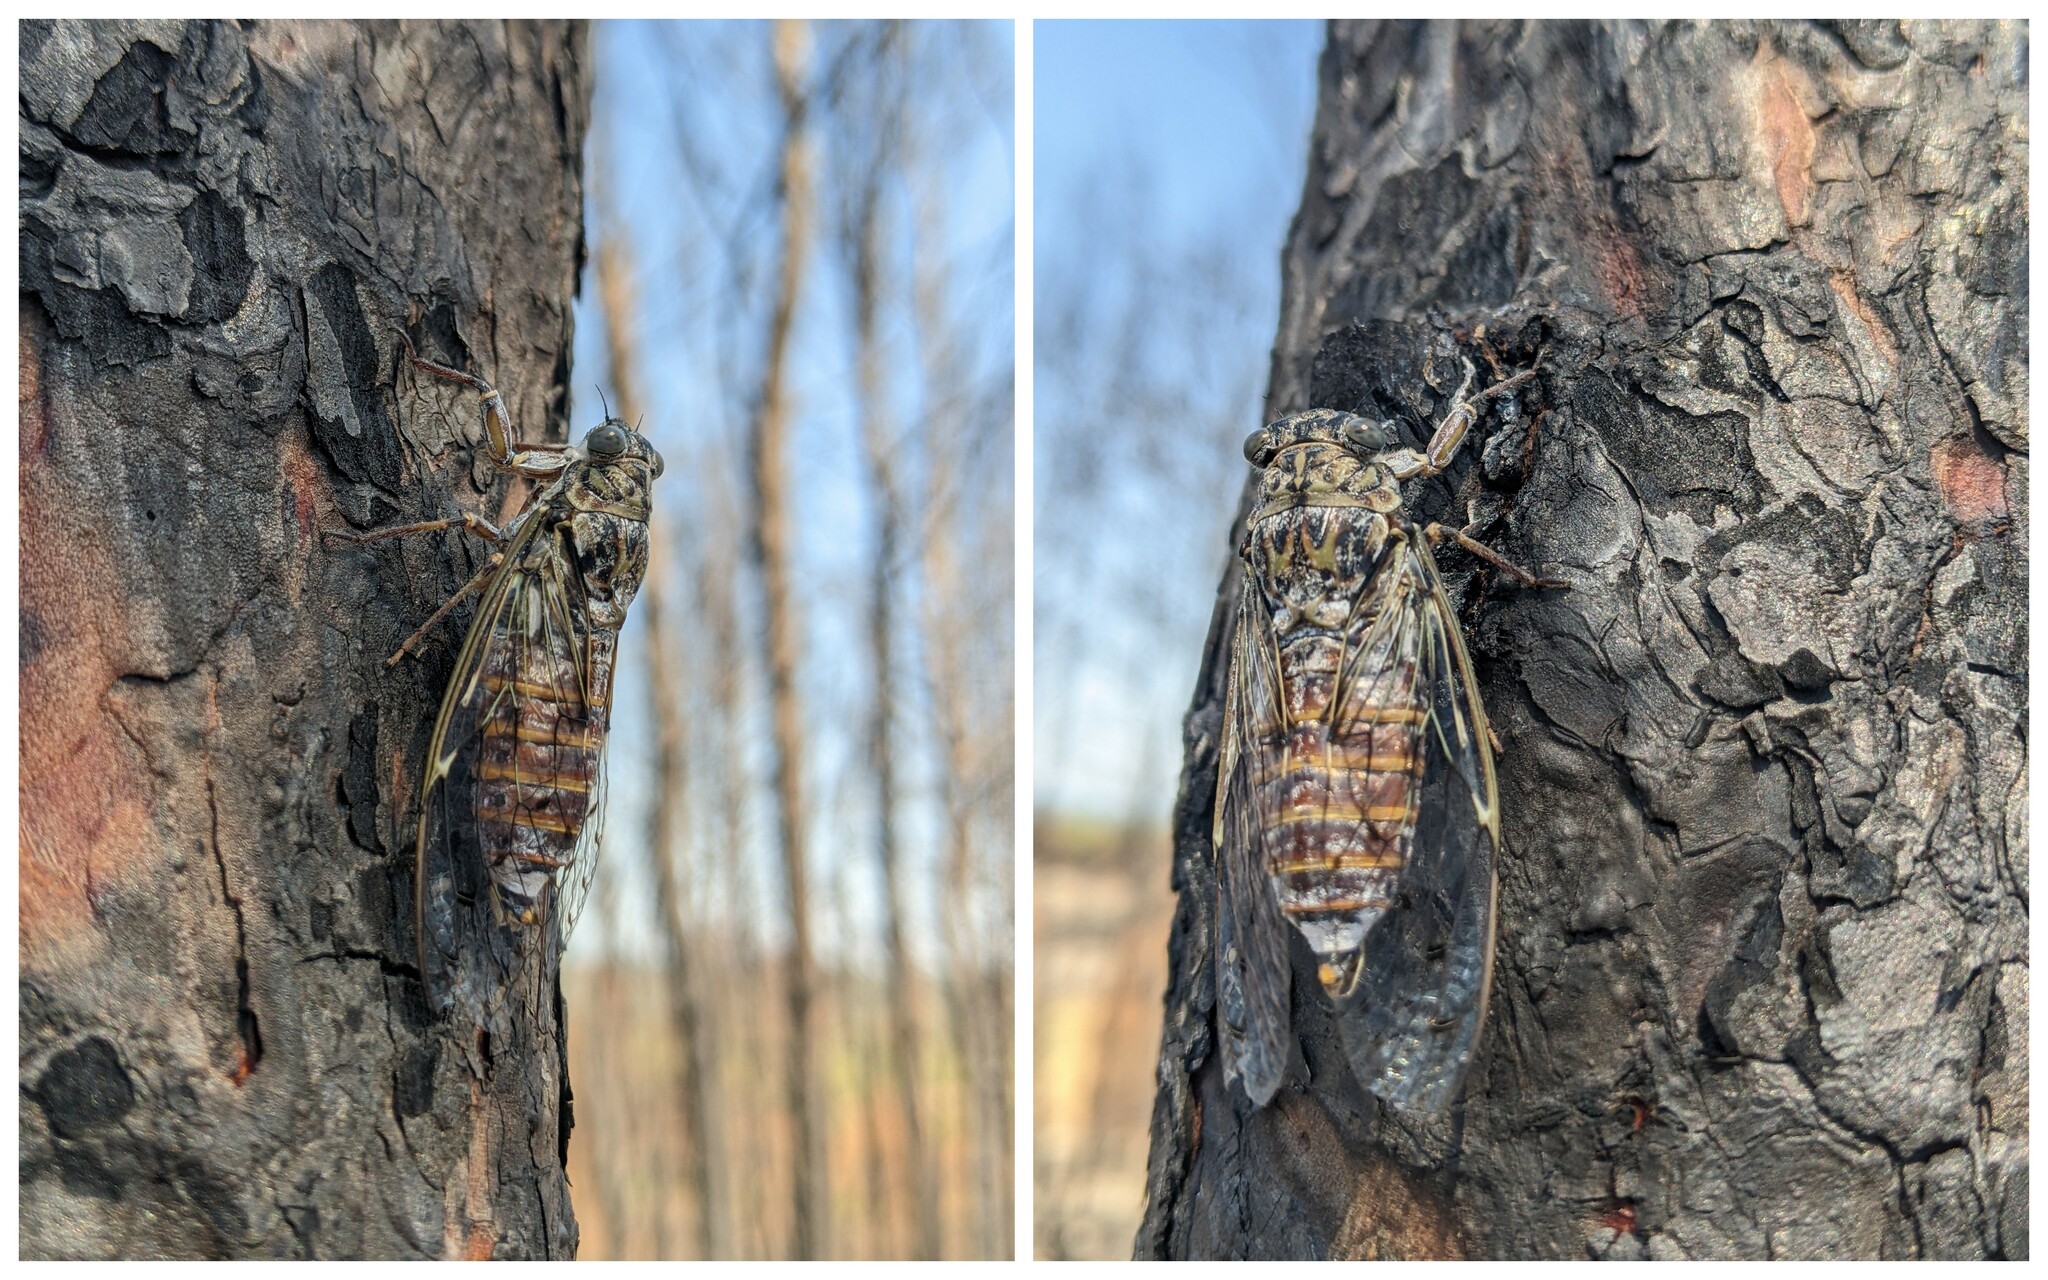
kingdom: Animalia
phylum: Arthropoda
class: Insecta
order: Hemiptera
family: Cicadidae
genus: Cicada
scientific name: Cicada orni
